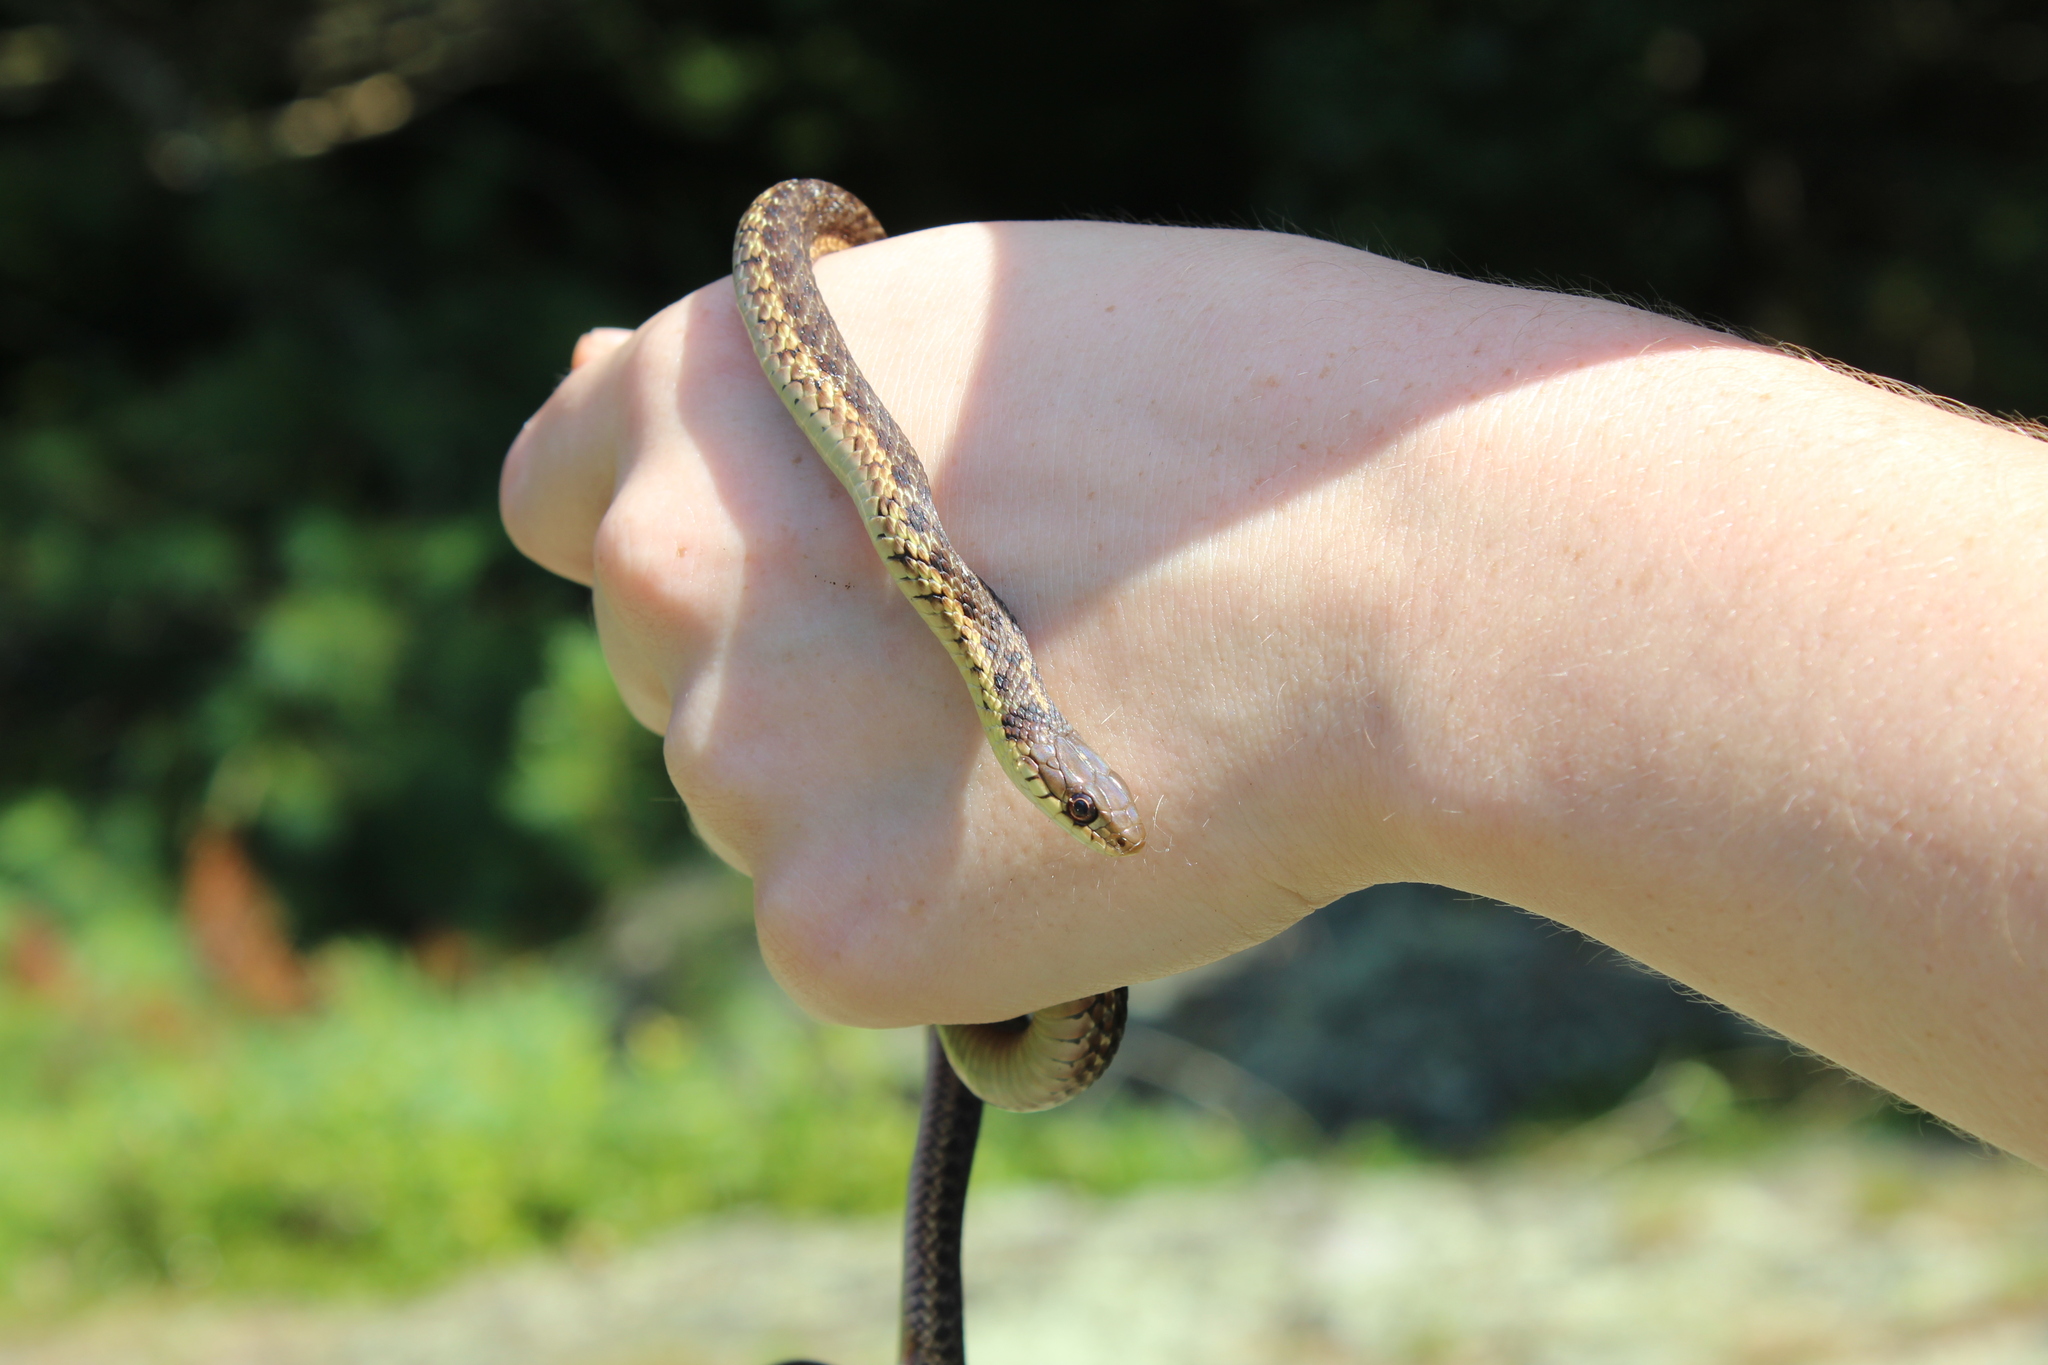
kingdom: Animalia
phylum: Chordata
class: Squamata
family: Colubridae
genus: Thamnophis
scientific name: Thamnophis sirtalis
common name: Common garter snake
